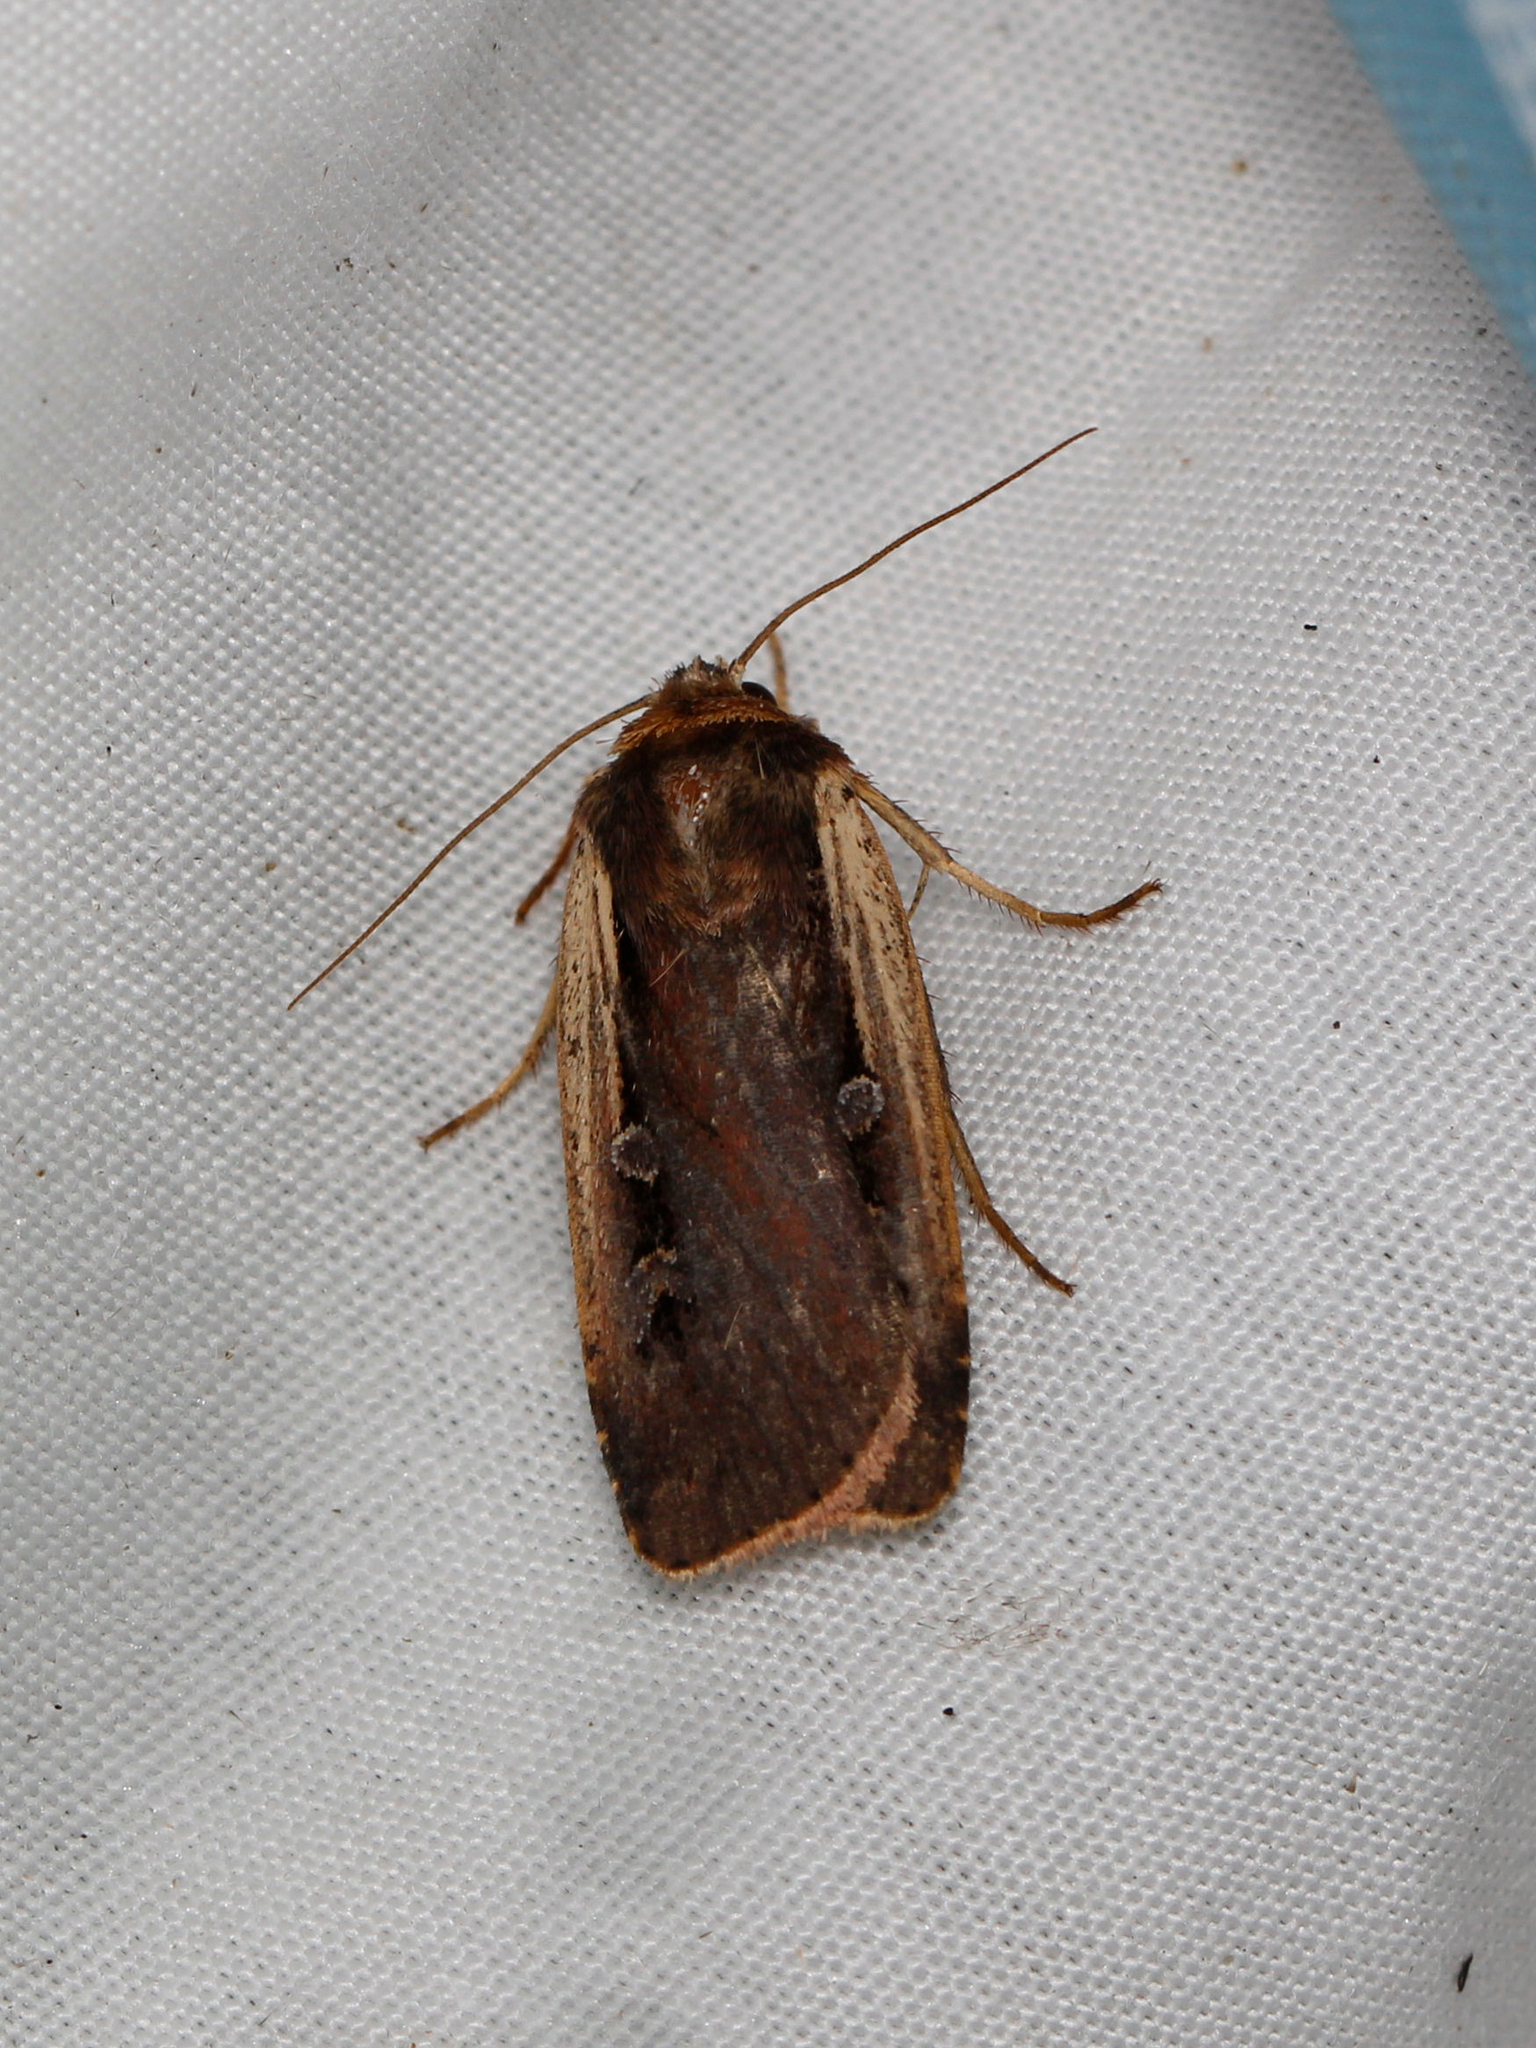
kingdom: Animalia
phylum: Arthropoda
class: Insecta
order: Lepidoptera
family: Noctuidae
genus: Ochropleura
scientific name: Ochropleura implecta
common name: Flame-shouldered dart
